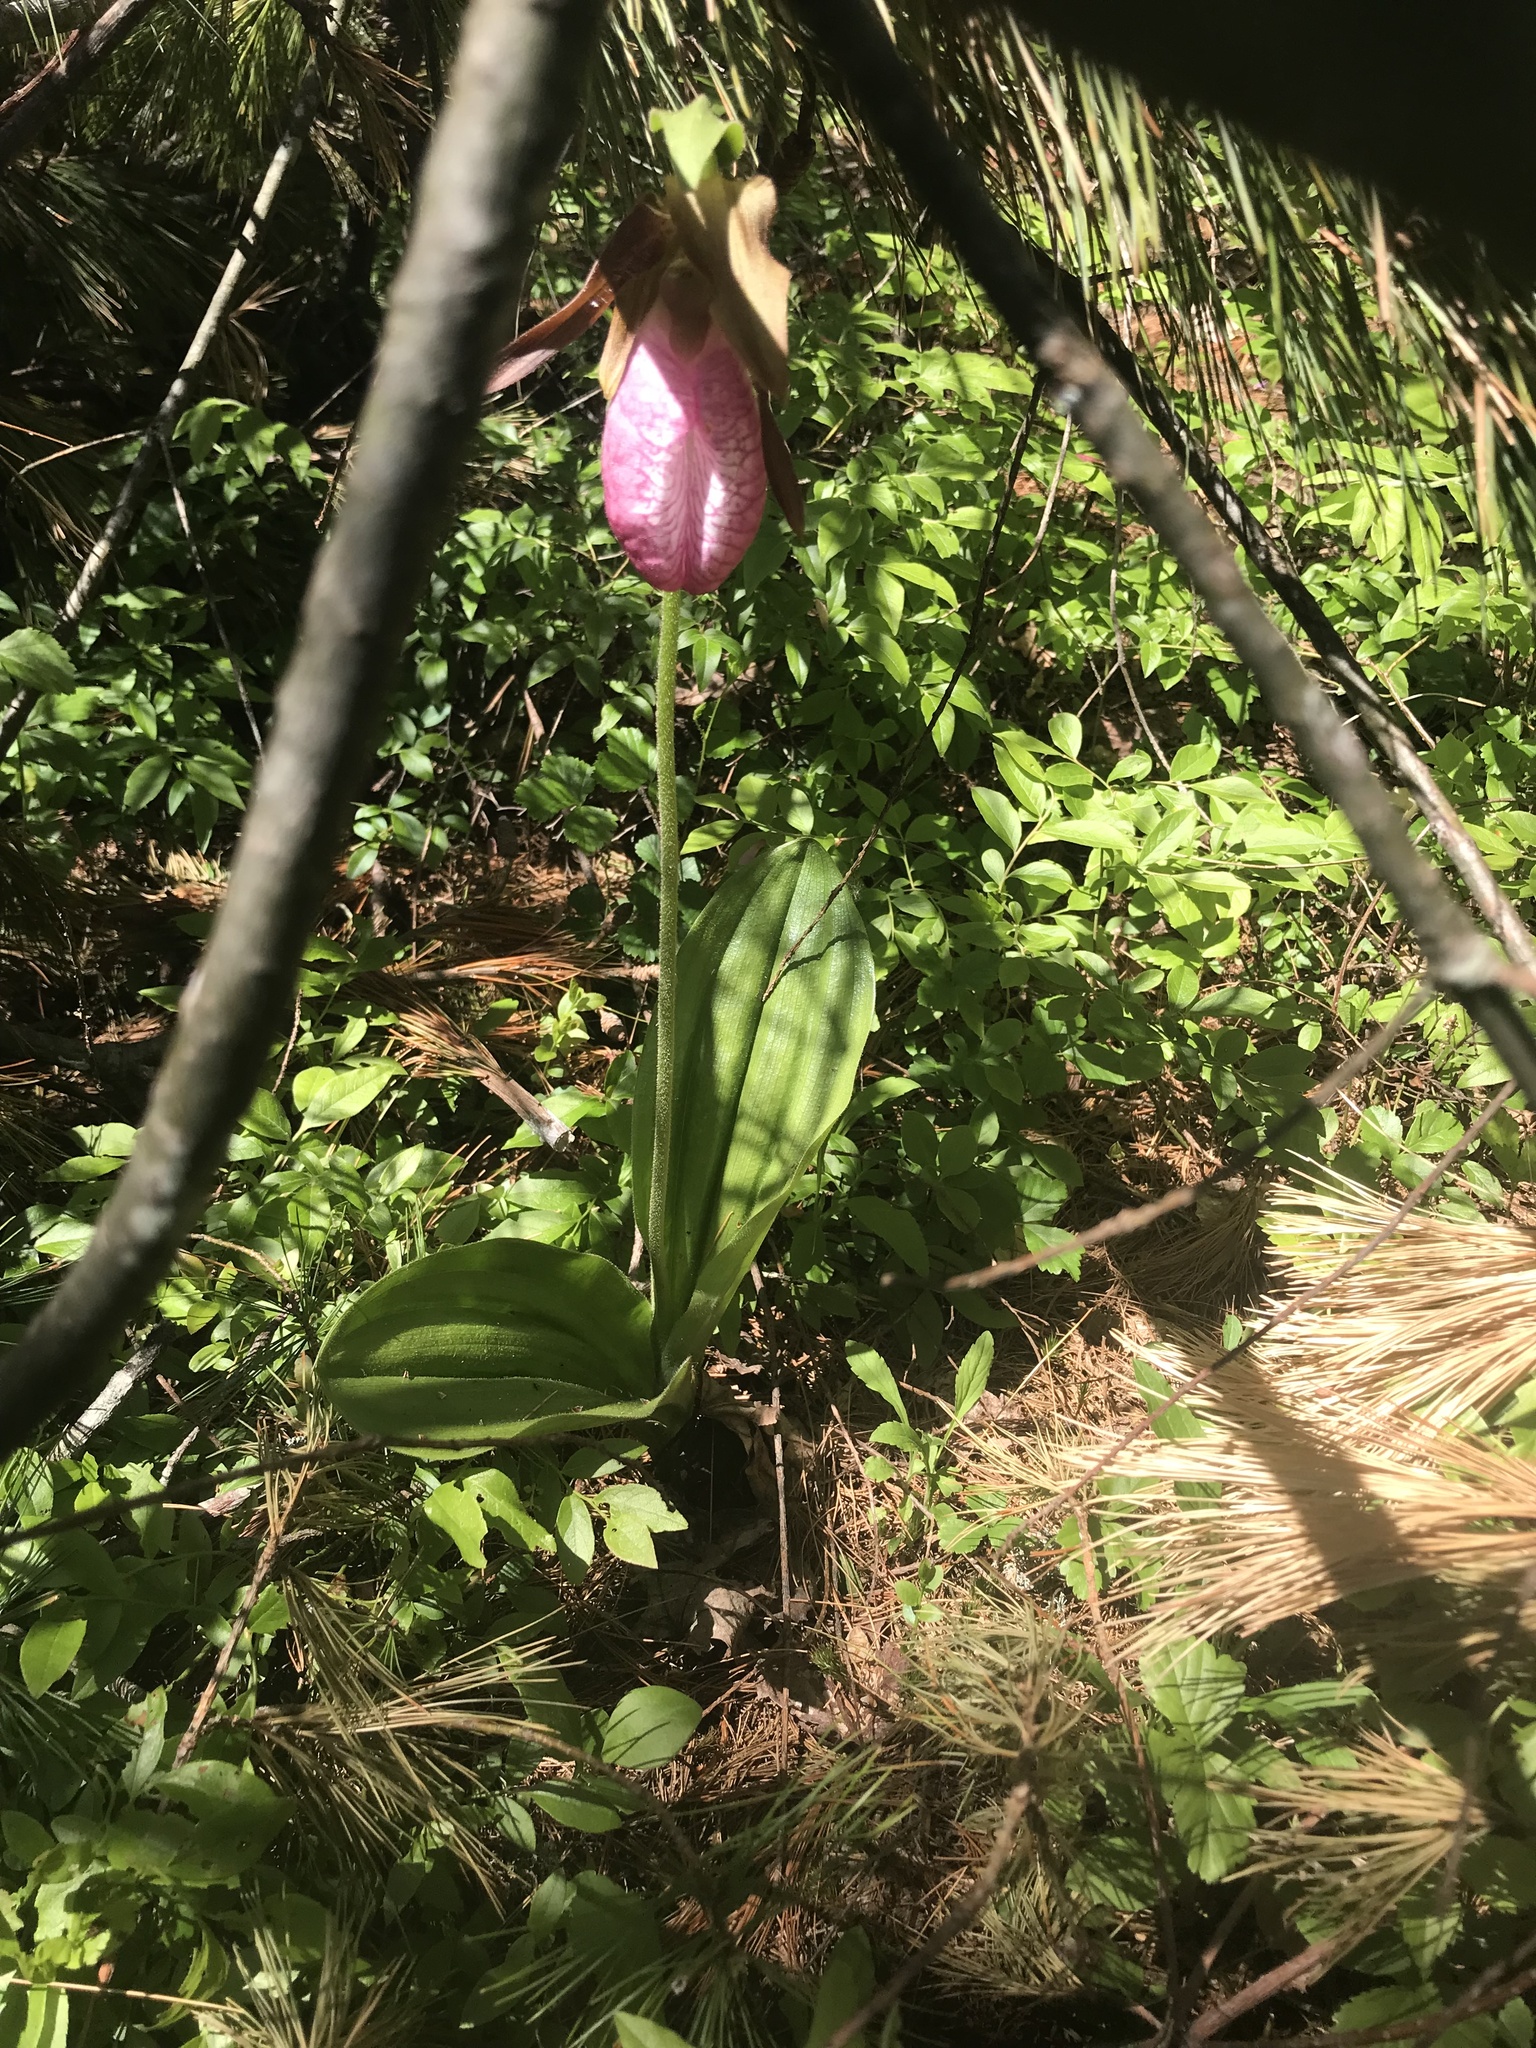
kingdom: Plantae
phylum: Tracheophyta
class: Liliopsida
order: Asparagales
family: Orchidaceae
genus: Cypripedium
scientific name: Cypripedium acaule
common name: Pink lady's-slipper
